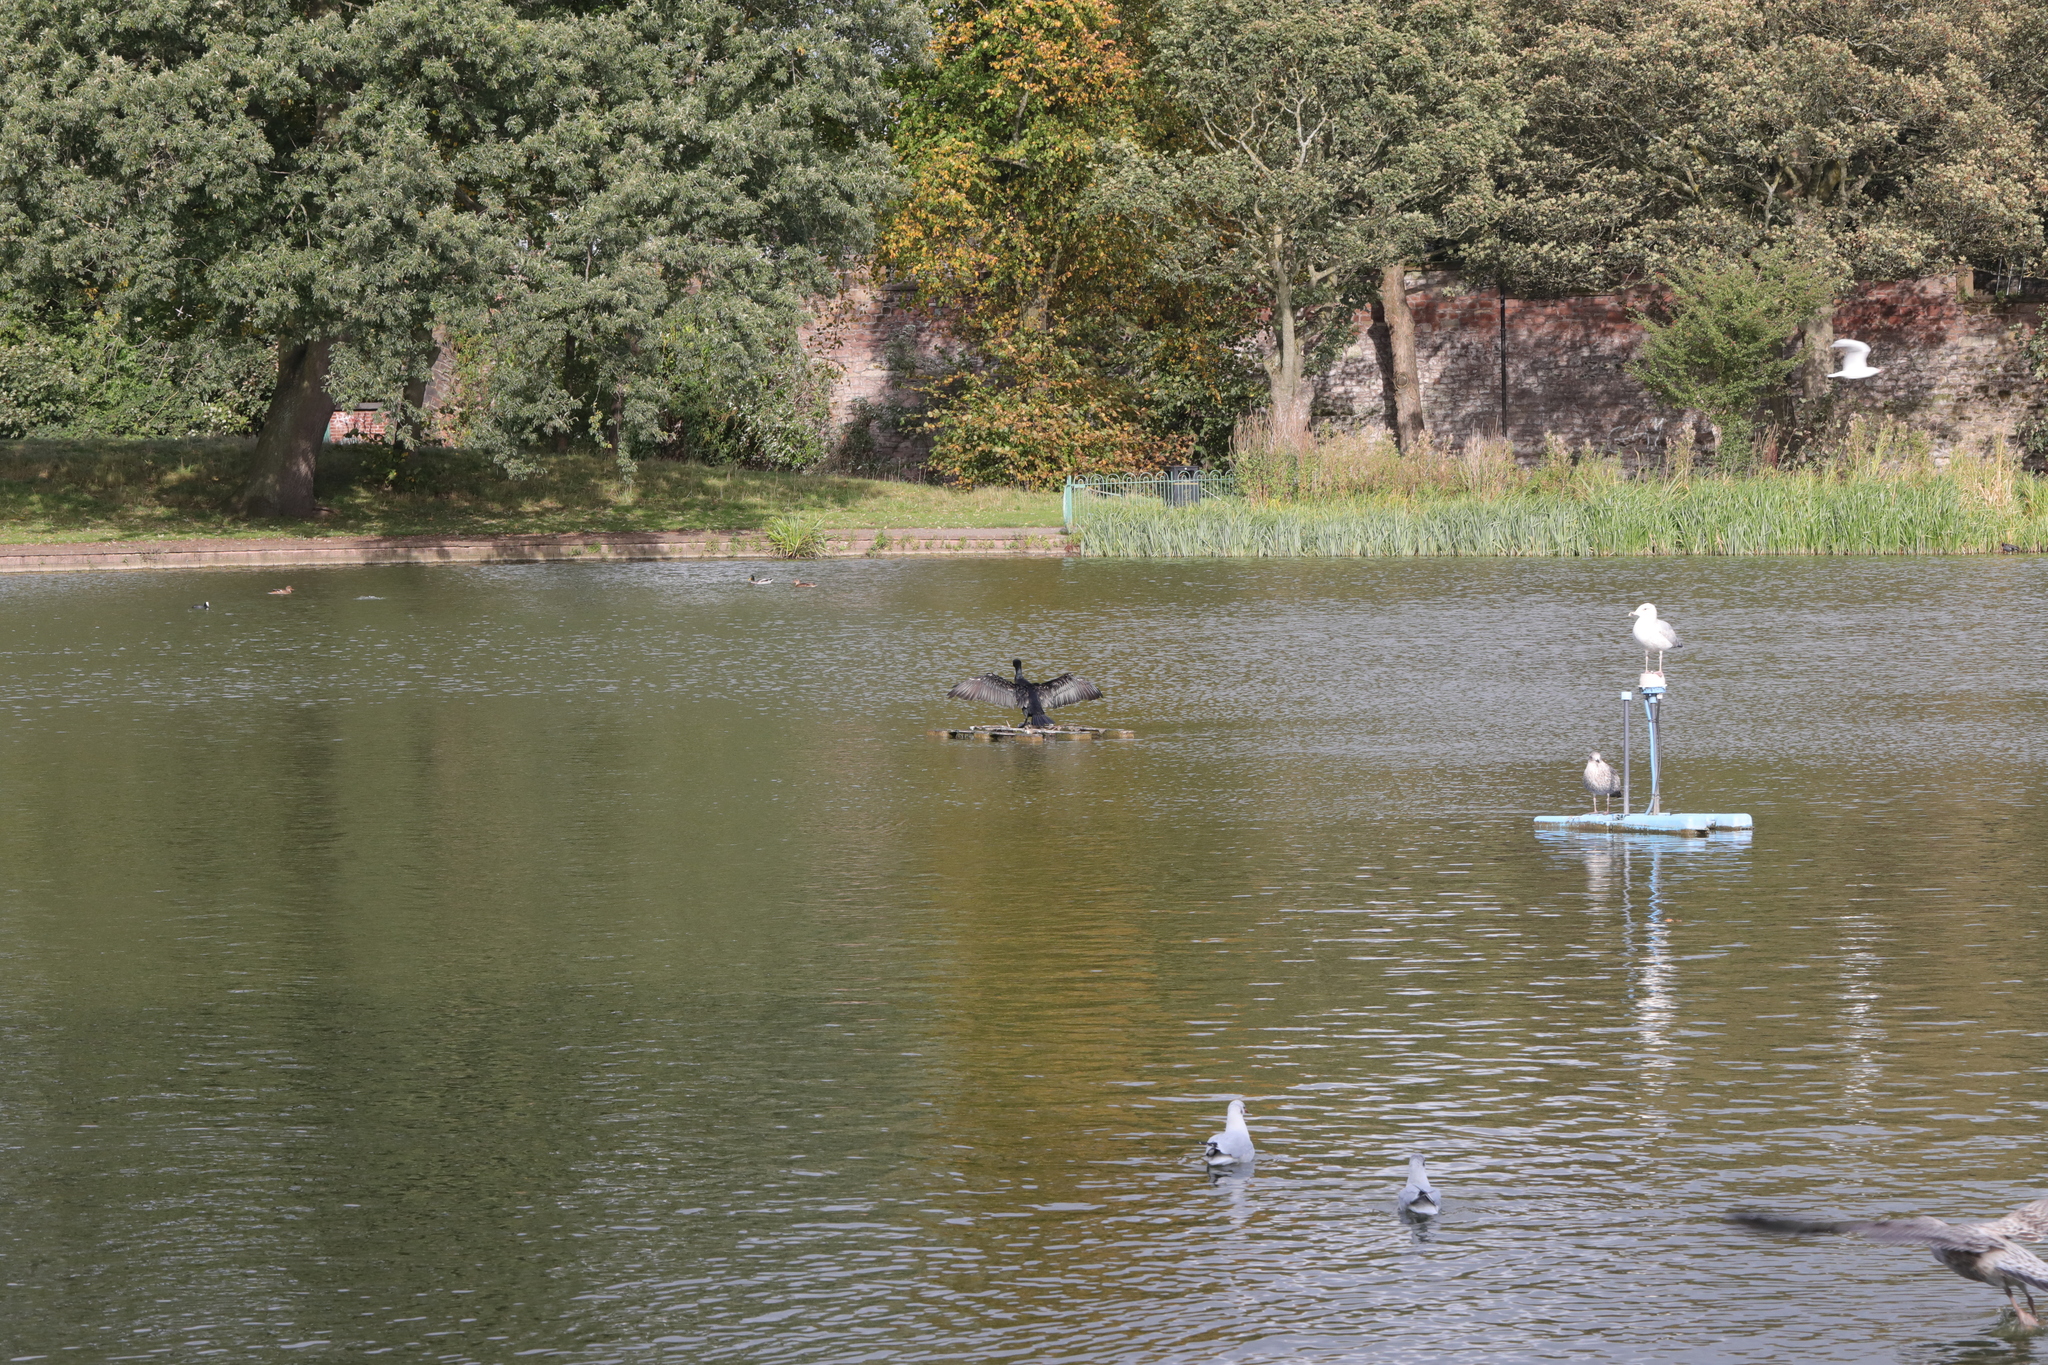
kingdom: Animalia
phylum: Chordata
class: Aves
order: Suliformes
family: Phalacrocoracidae
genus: Phalacrocorax
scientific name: Phalacrocorax carbo
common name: Great cormorant
